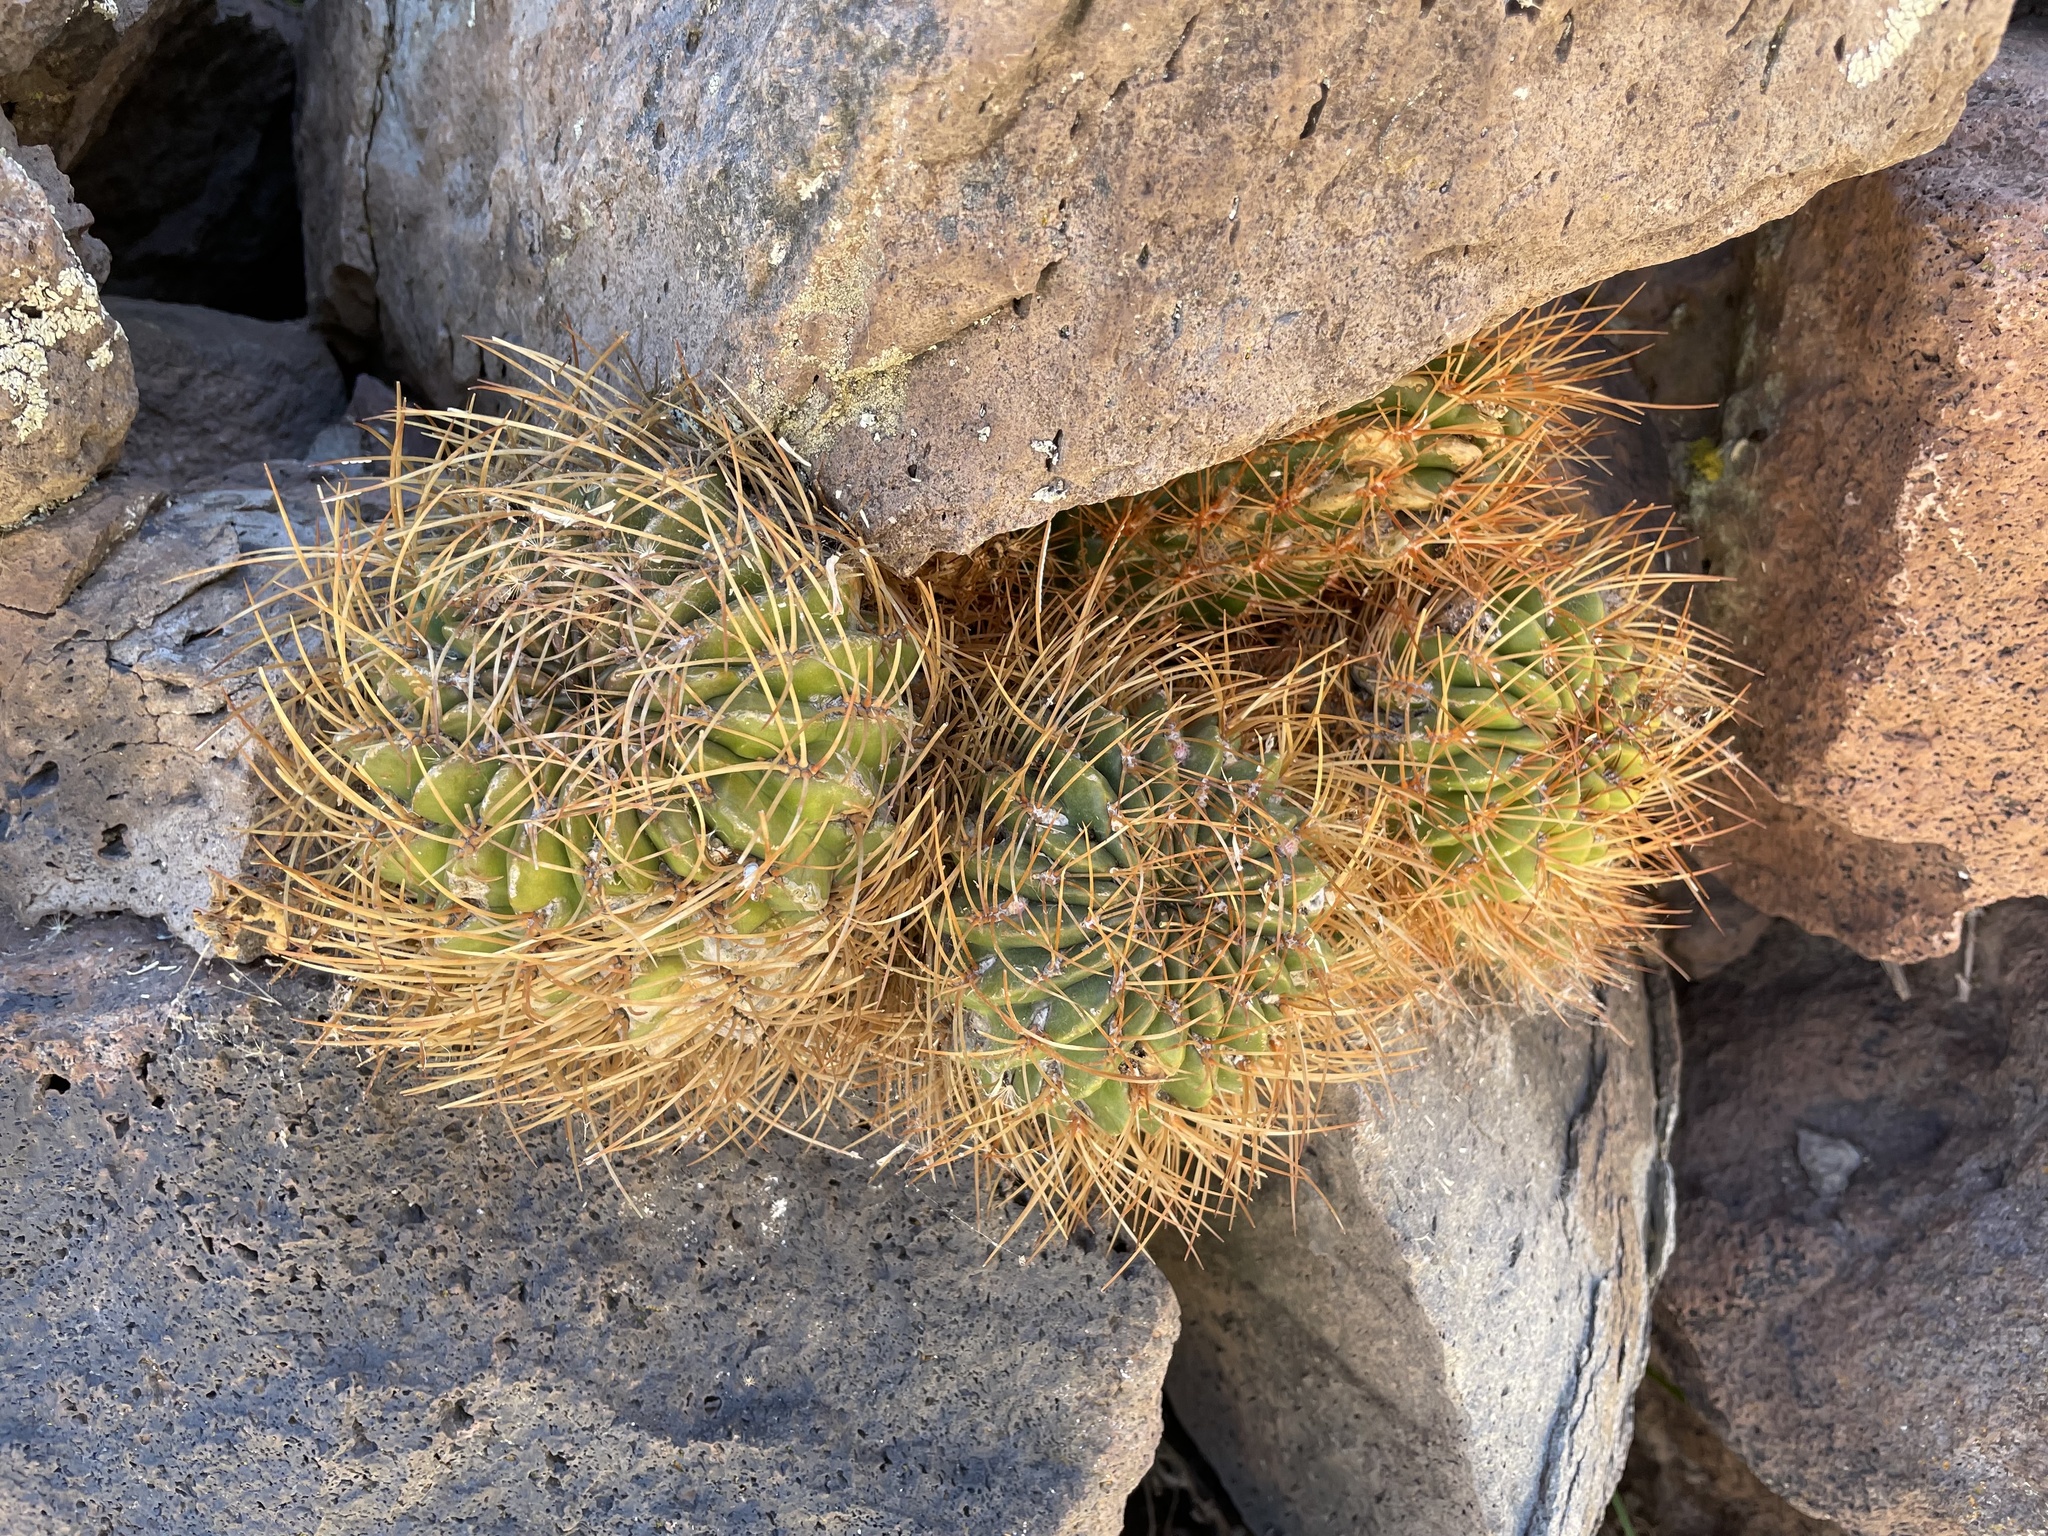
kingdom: Plantae
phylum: Tracheophyta
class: Magnoliopsida
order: Caryophyllales
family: Cactaceae
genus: Lobivia
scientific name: Lobivia maximiliana
